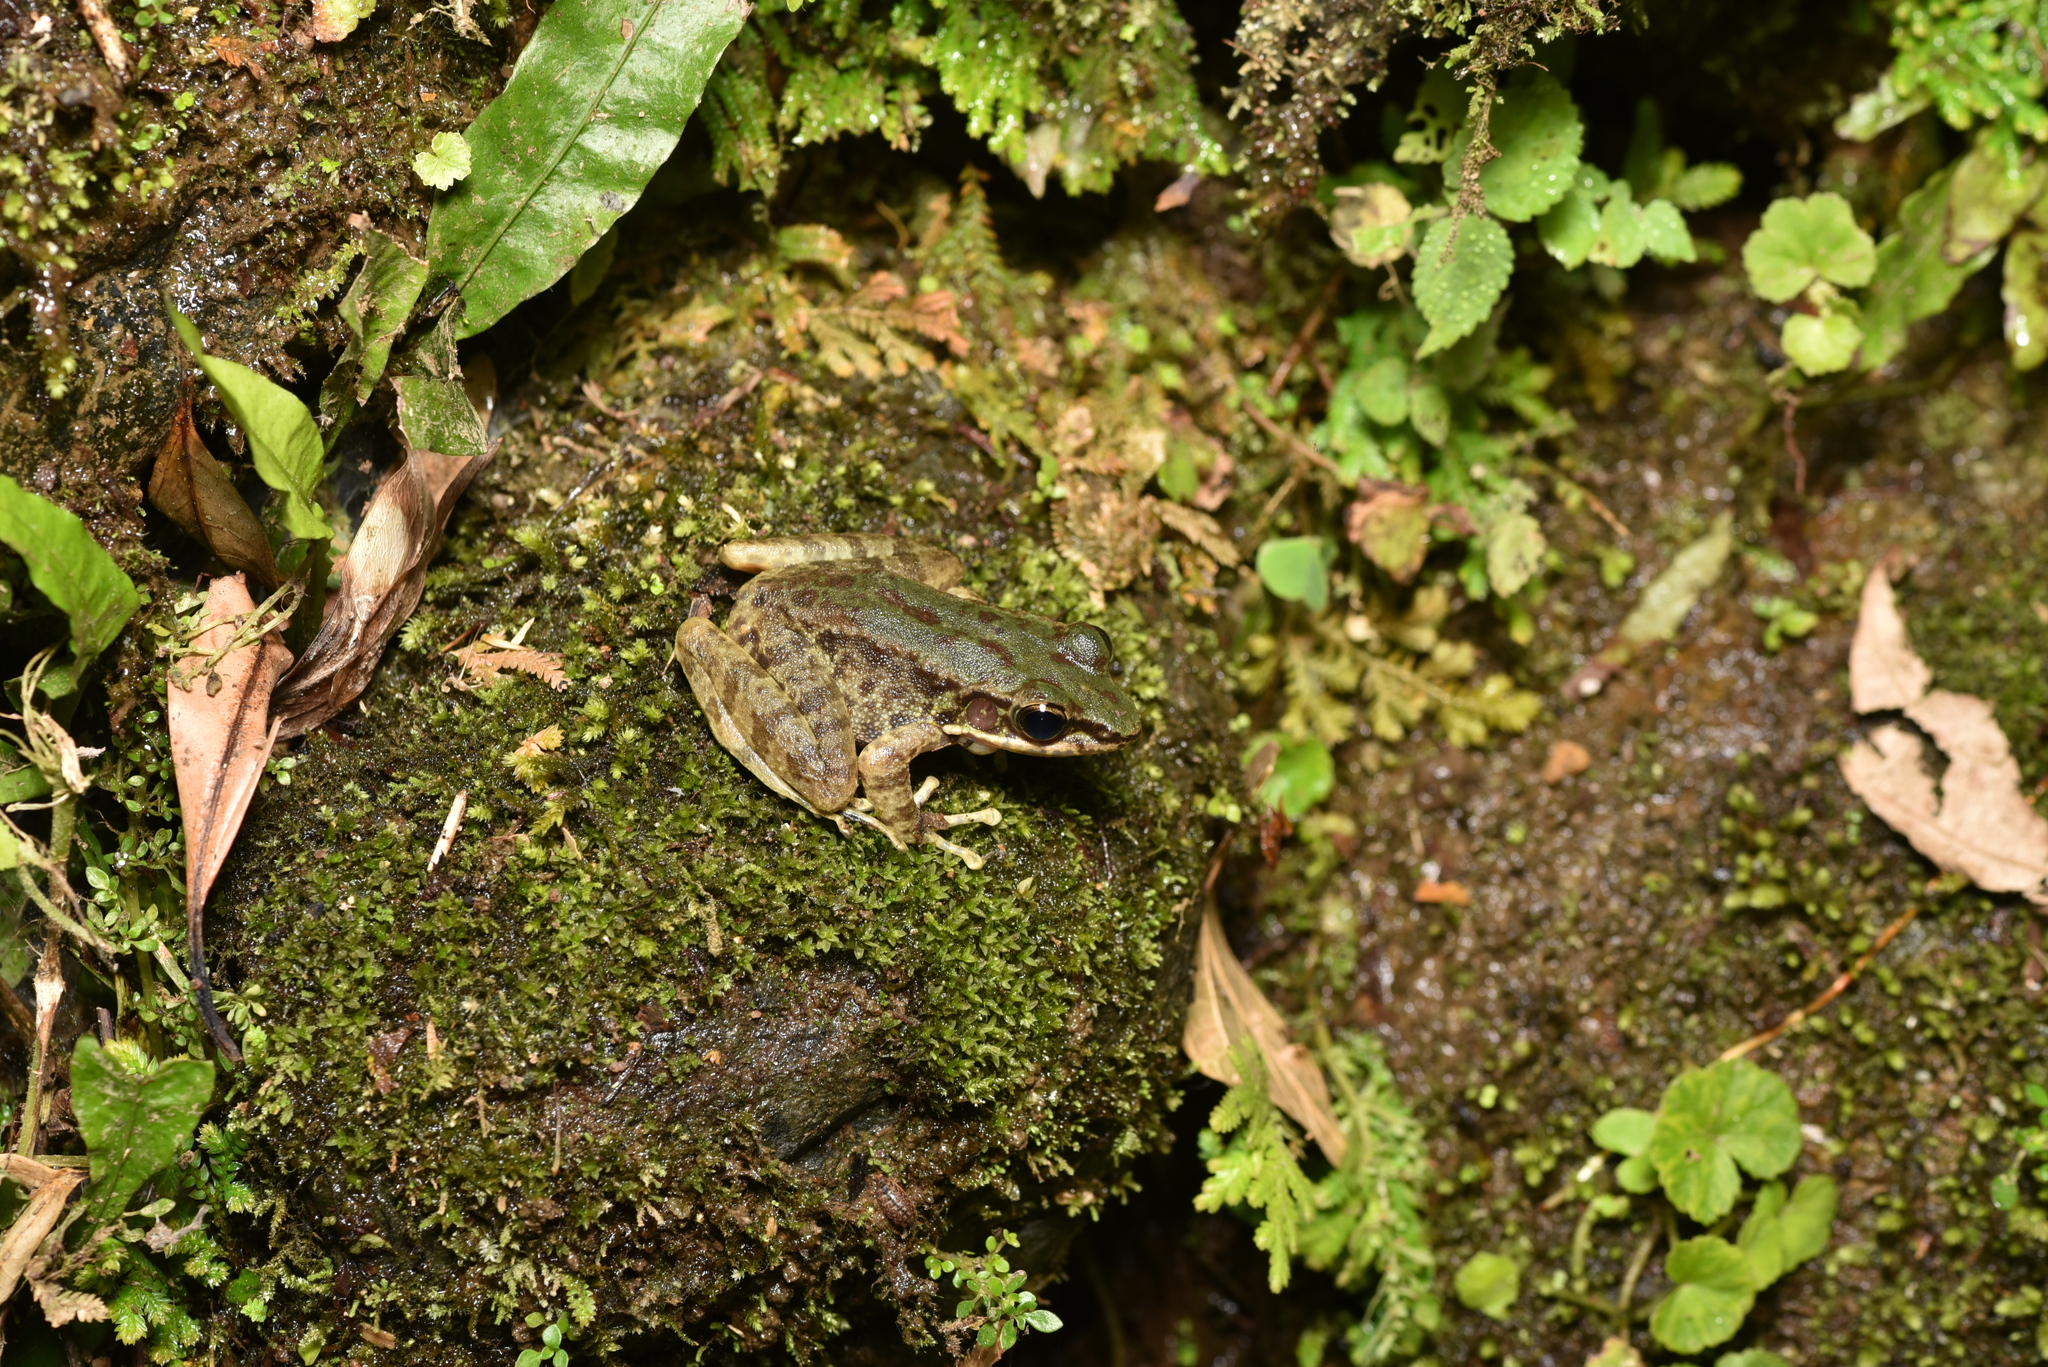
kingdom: Animalia
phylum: Chordata
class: Amphibia
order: Anura
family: Ranidae
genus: Odorrana
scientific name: Odorrana swinhoana
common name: Bangkimtsing frog
